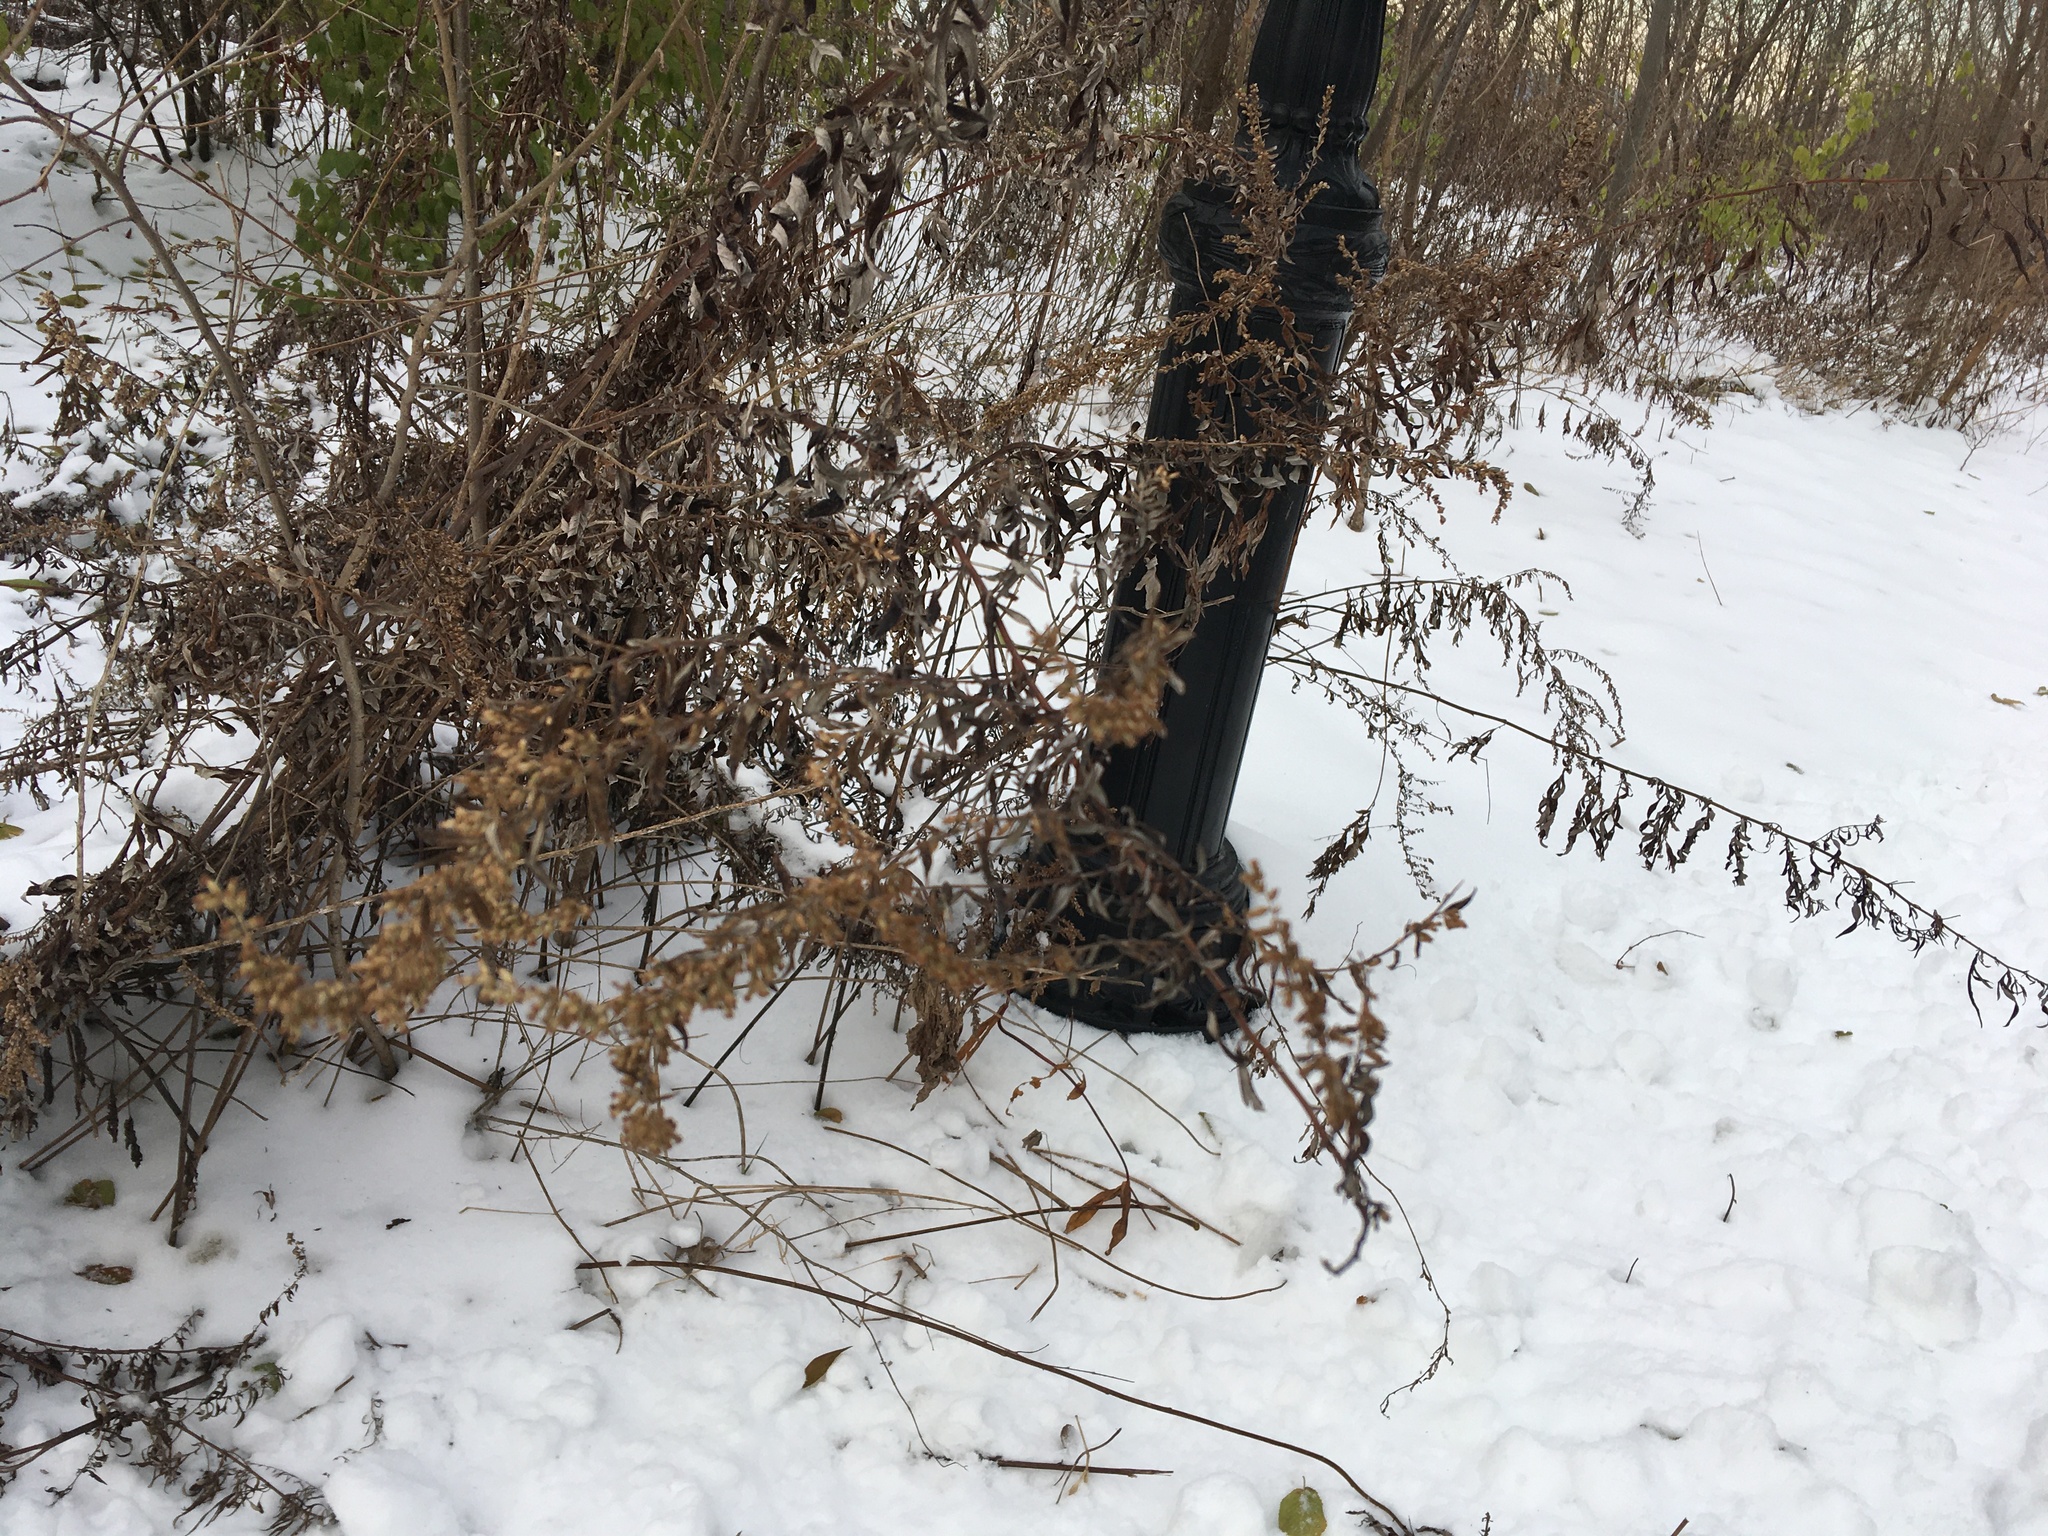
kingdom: Plantae
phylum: Tracheophyta
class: Magnoliopsida
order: Asterales
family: Asteraceae
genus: Artemisia
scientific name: Artemisia vulgaris
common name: Mugwort
